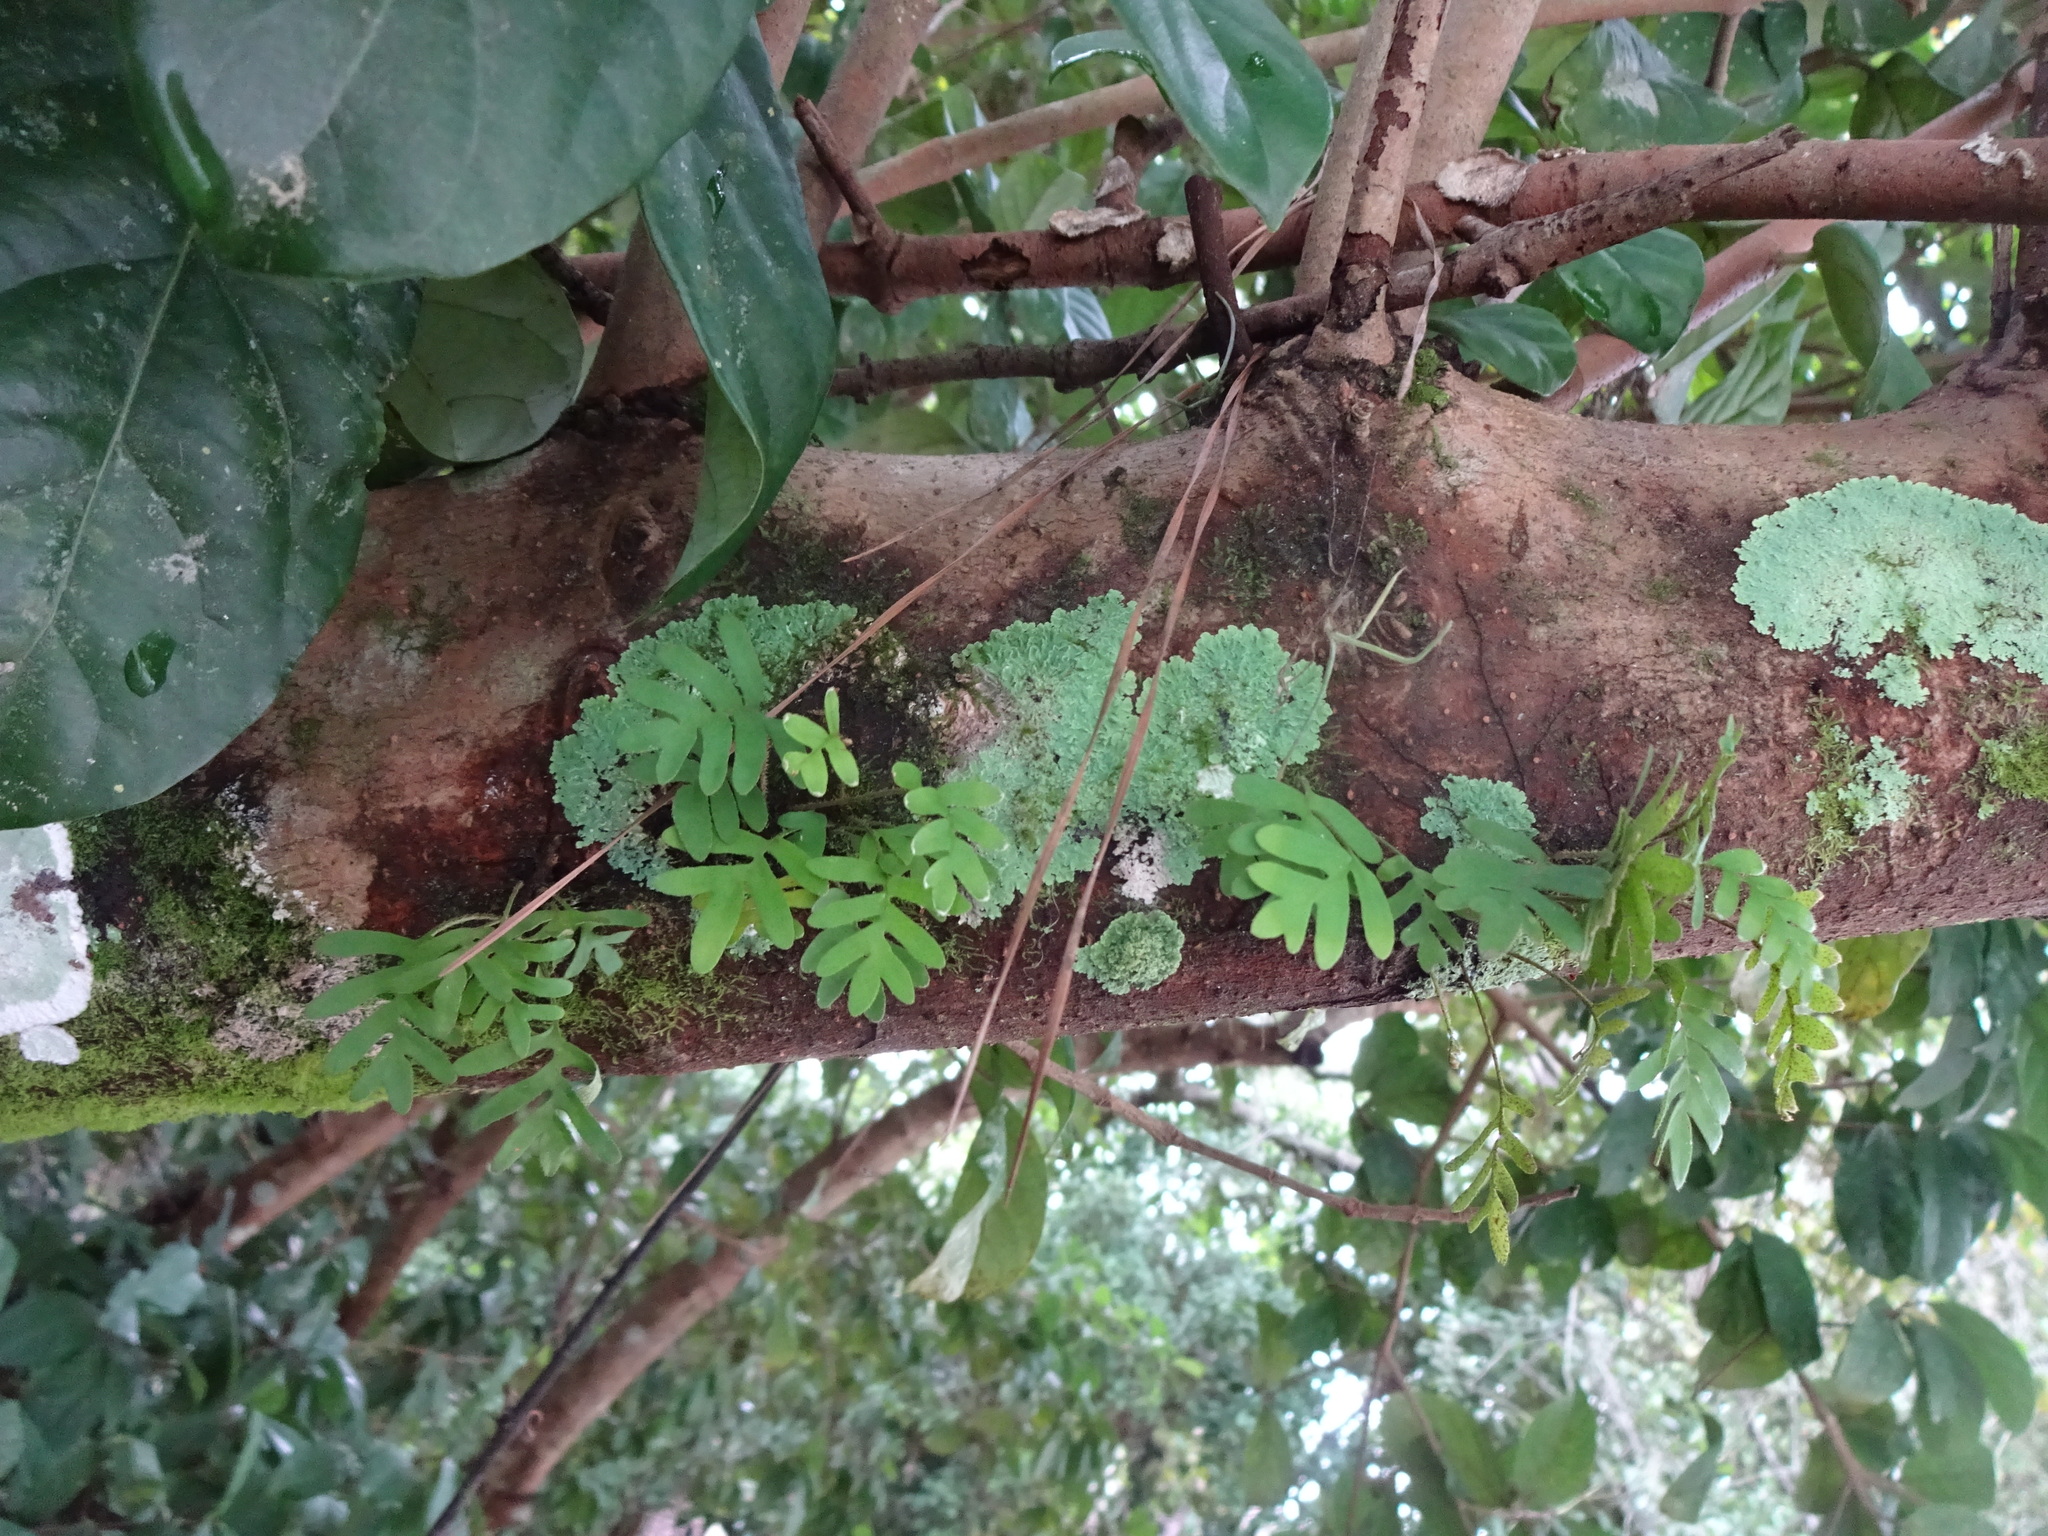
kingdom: Plantae
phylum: Tracheophyta
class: Polypodiopsida
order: Polypodiales
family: Polypodiaceae
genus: Pleopeltis
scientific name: Pleopeltis michauxiana
